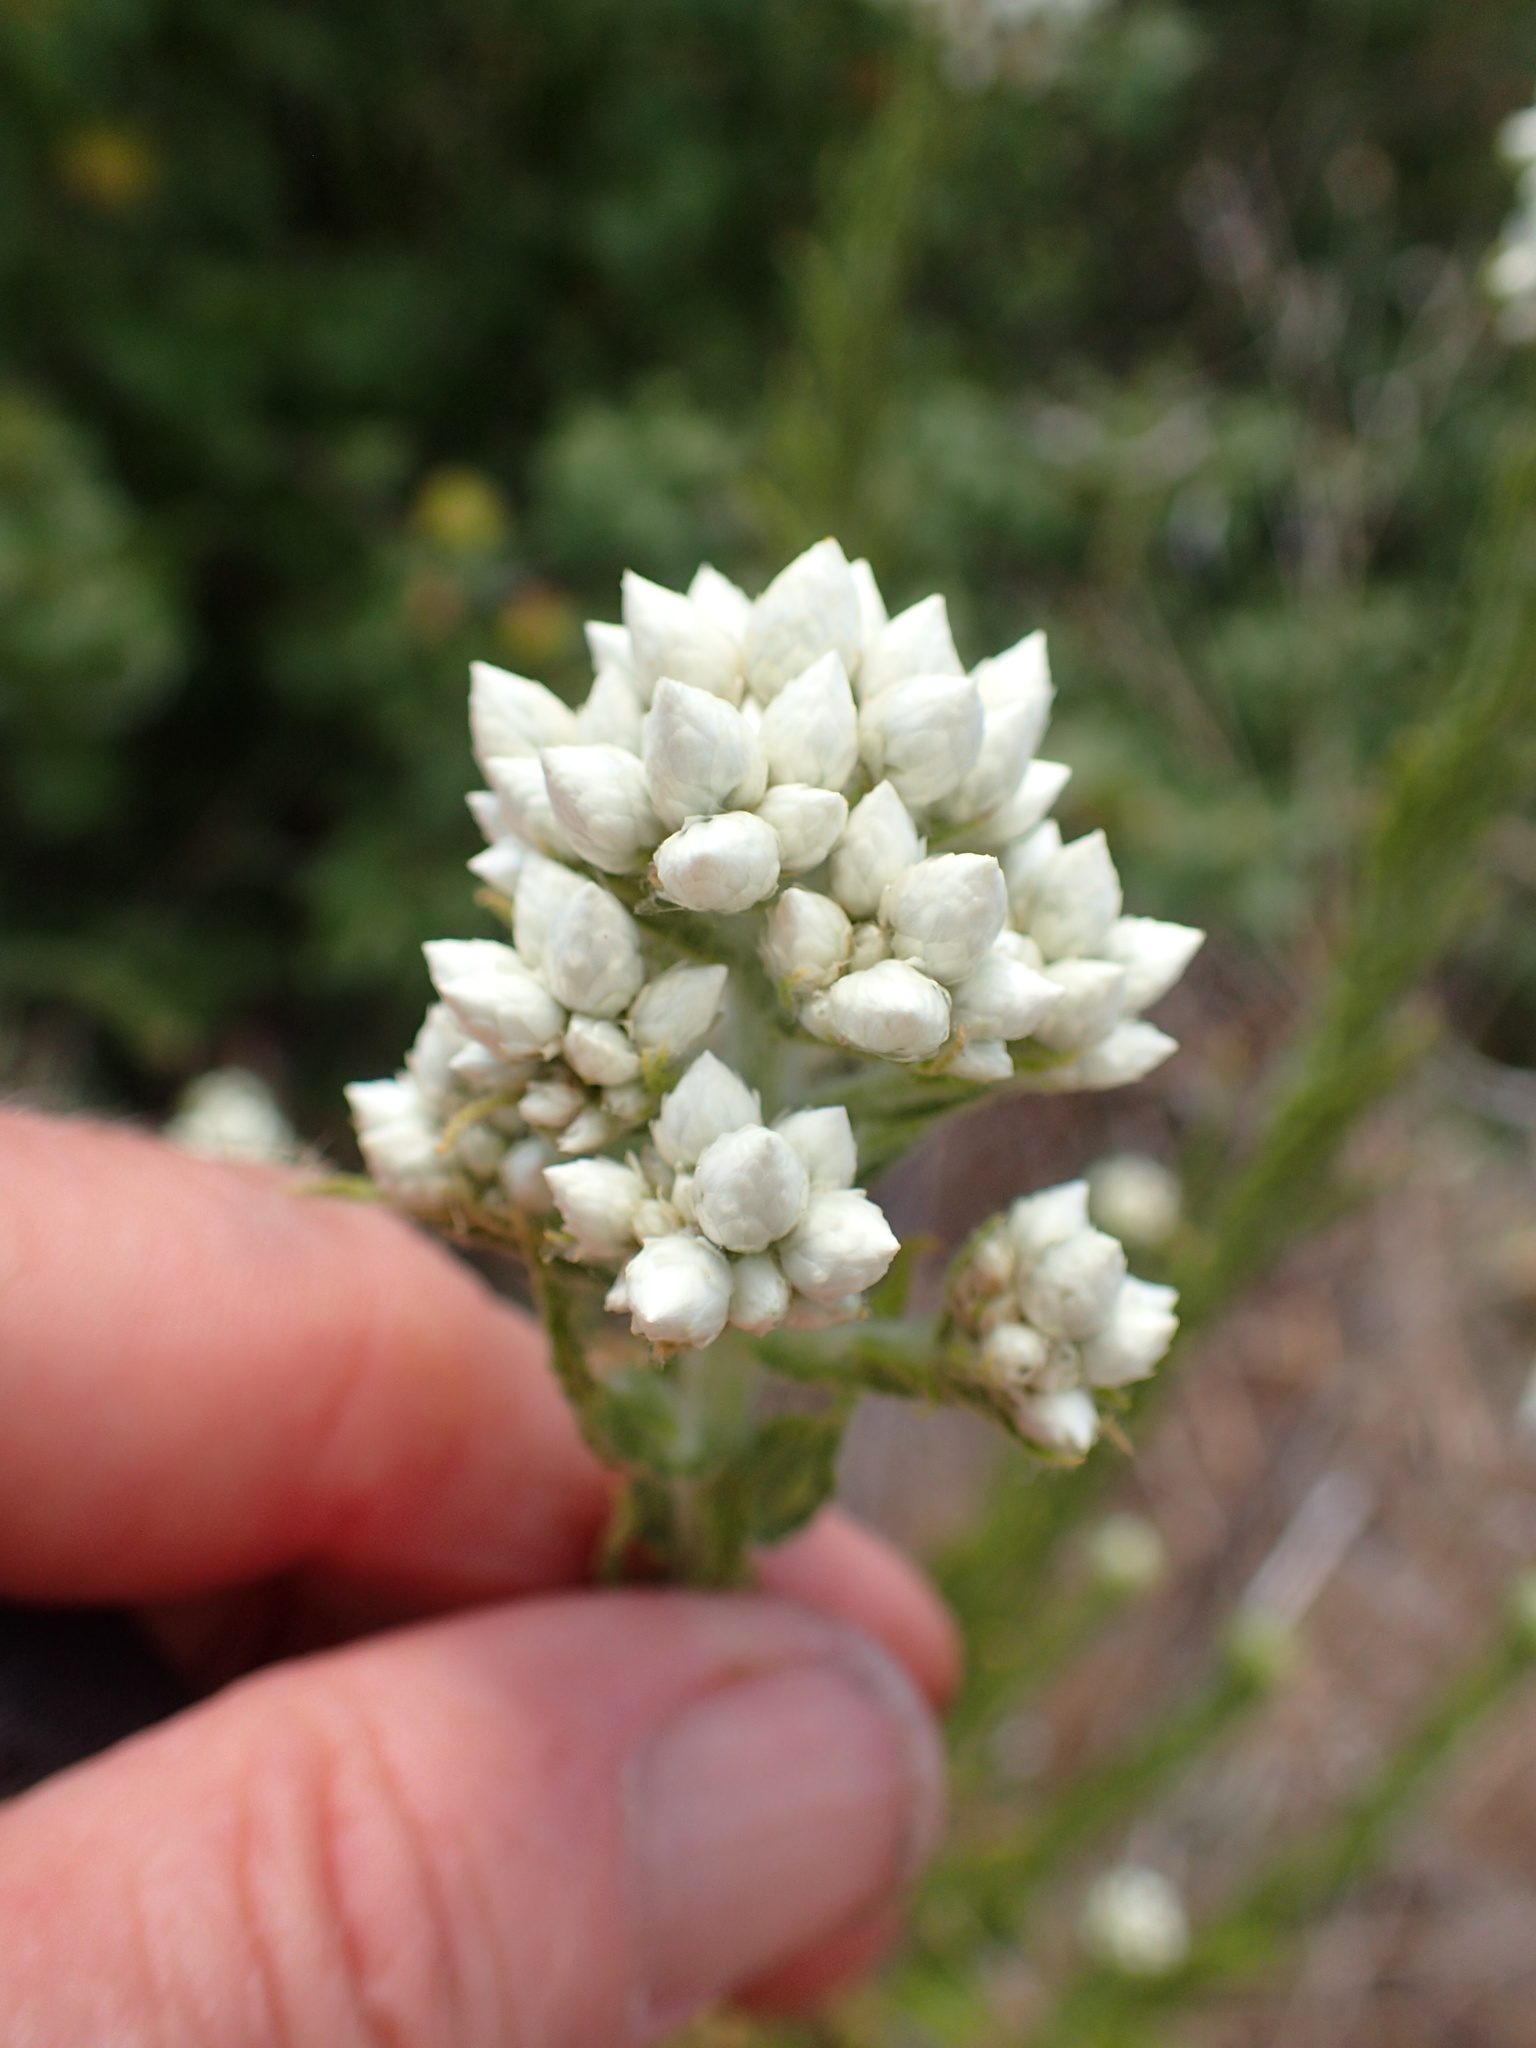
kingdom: Plantae
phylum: Tracheophyta
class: Magnoliopsida
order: Asterales
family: Asteraceae
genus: Pseudognaphalium
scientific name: Pseudognaphalium californicum
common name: California rabbit-tobacco
